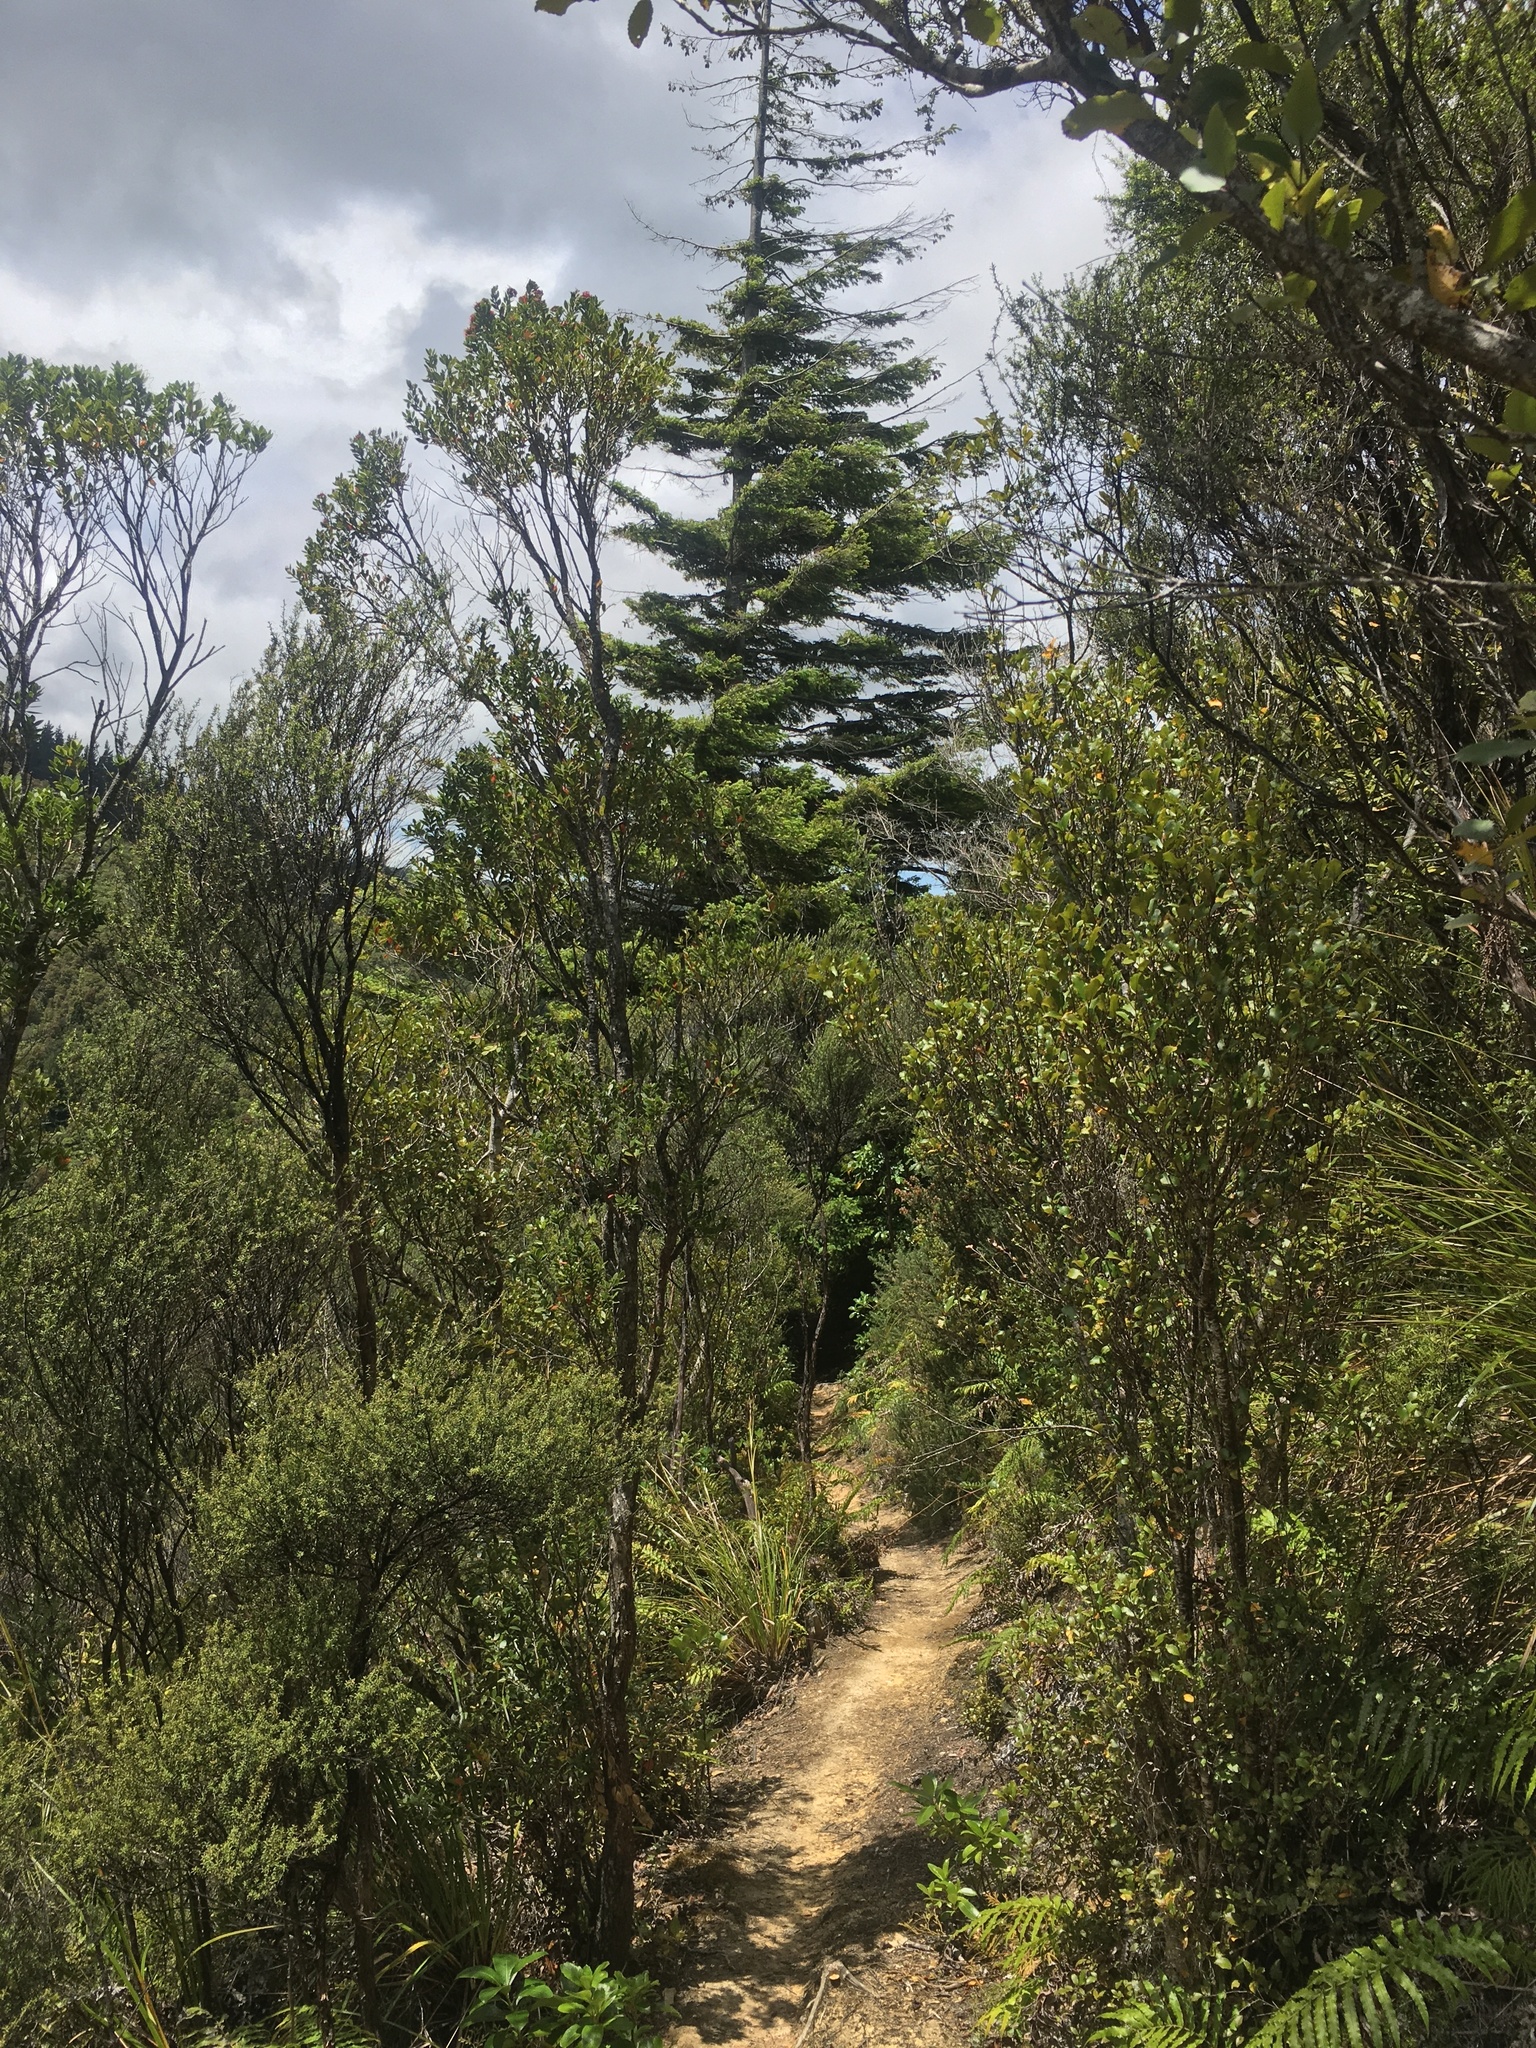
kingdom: Plantae
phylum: Tracheophyta
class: Pinopsida
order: Pinales
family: Pinaceae
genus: Pseudotsuga
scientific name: Pseudotsuga menziesii
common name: Douglas fir
